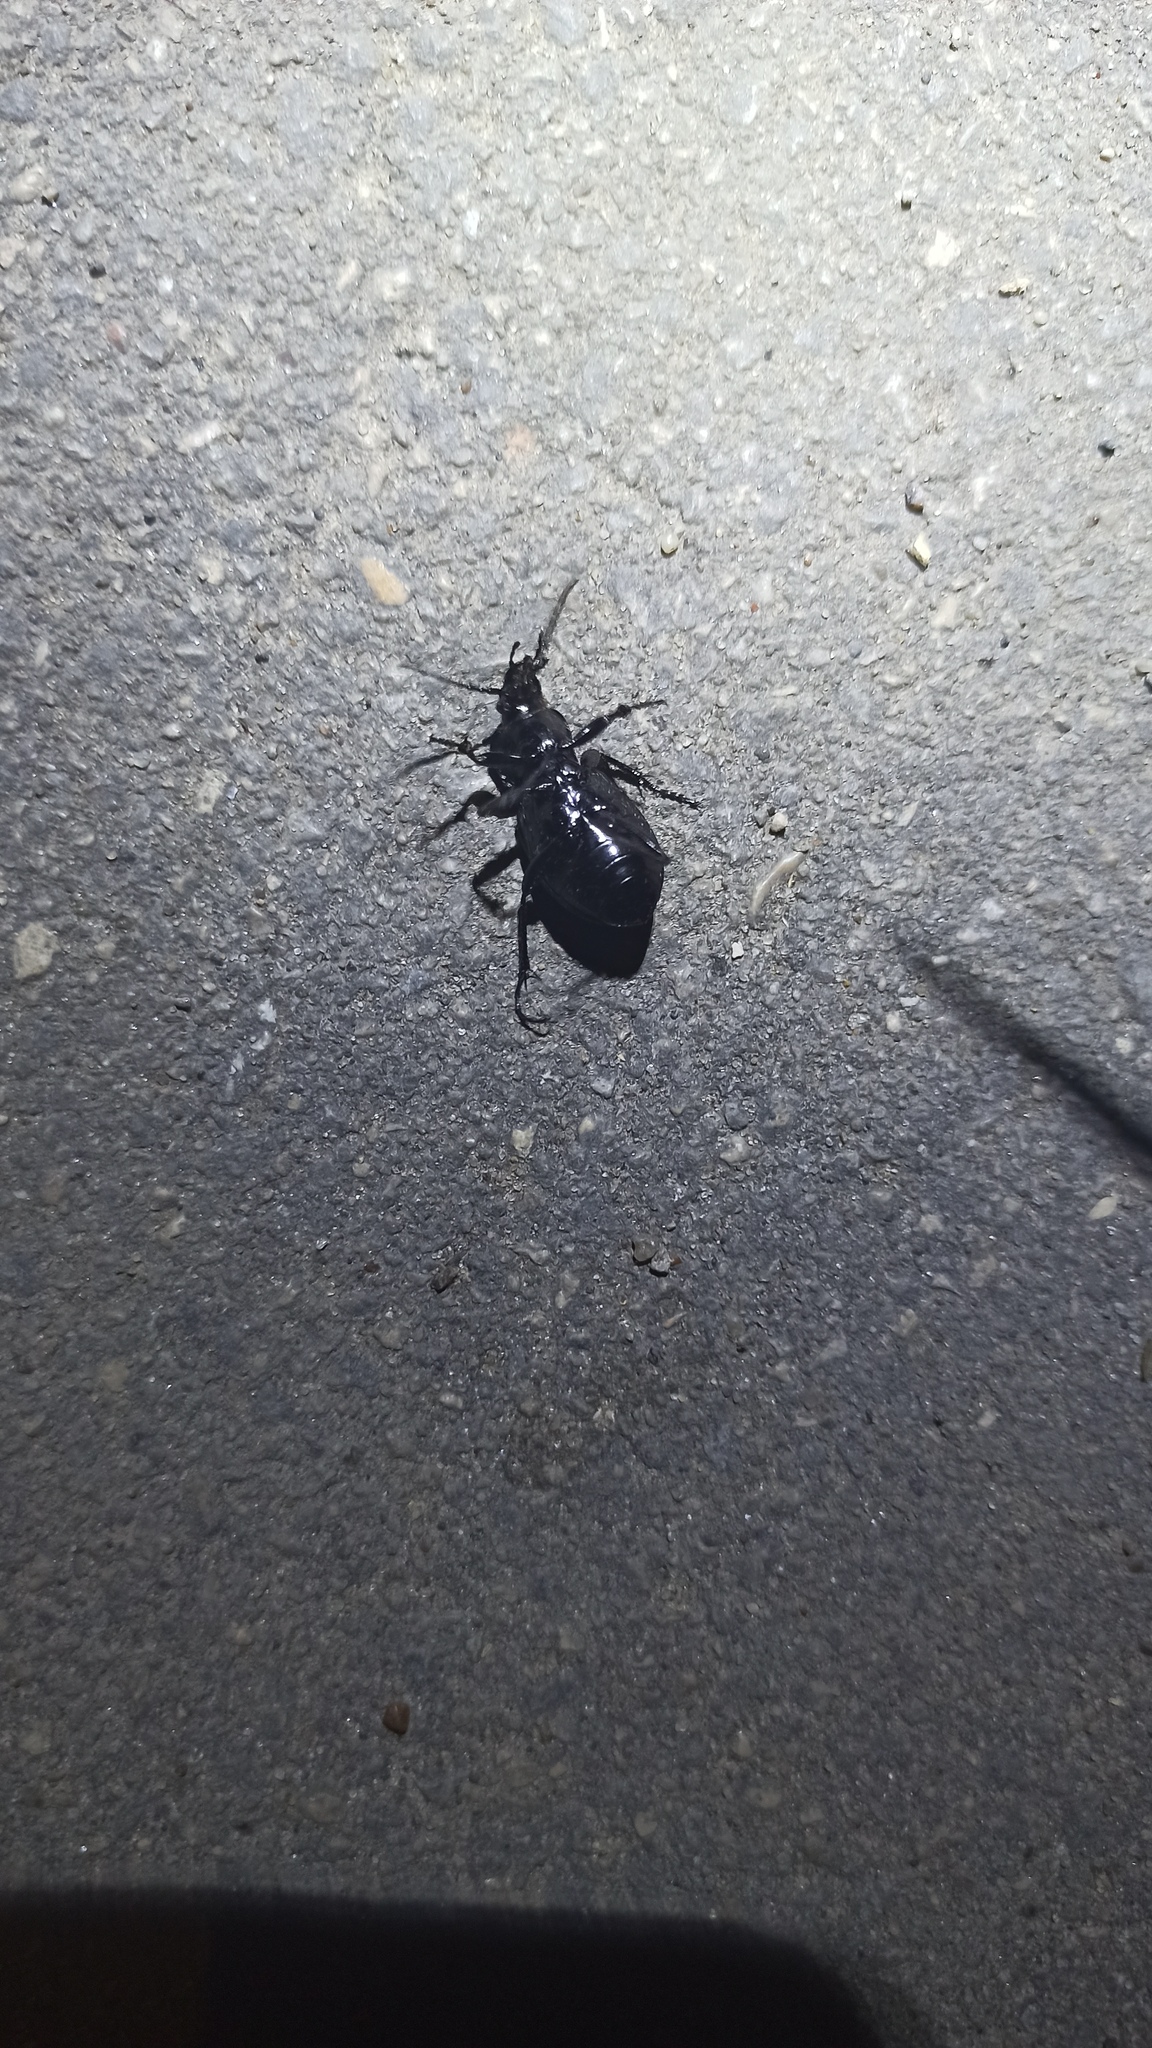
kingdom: Animalia
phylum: Arthropoda
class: Insecta
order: Coleoptera
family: Carabidae
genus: Carabus
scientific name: Carabus nemoralis
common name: European ground beetle
